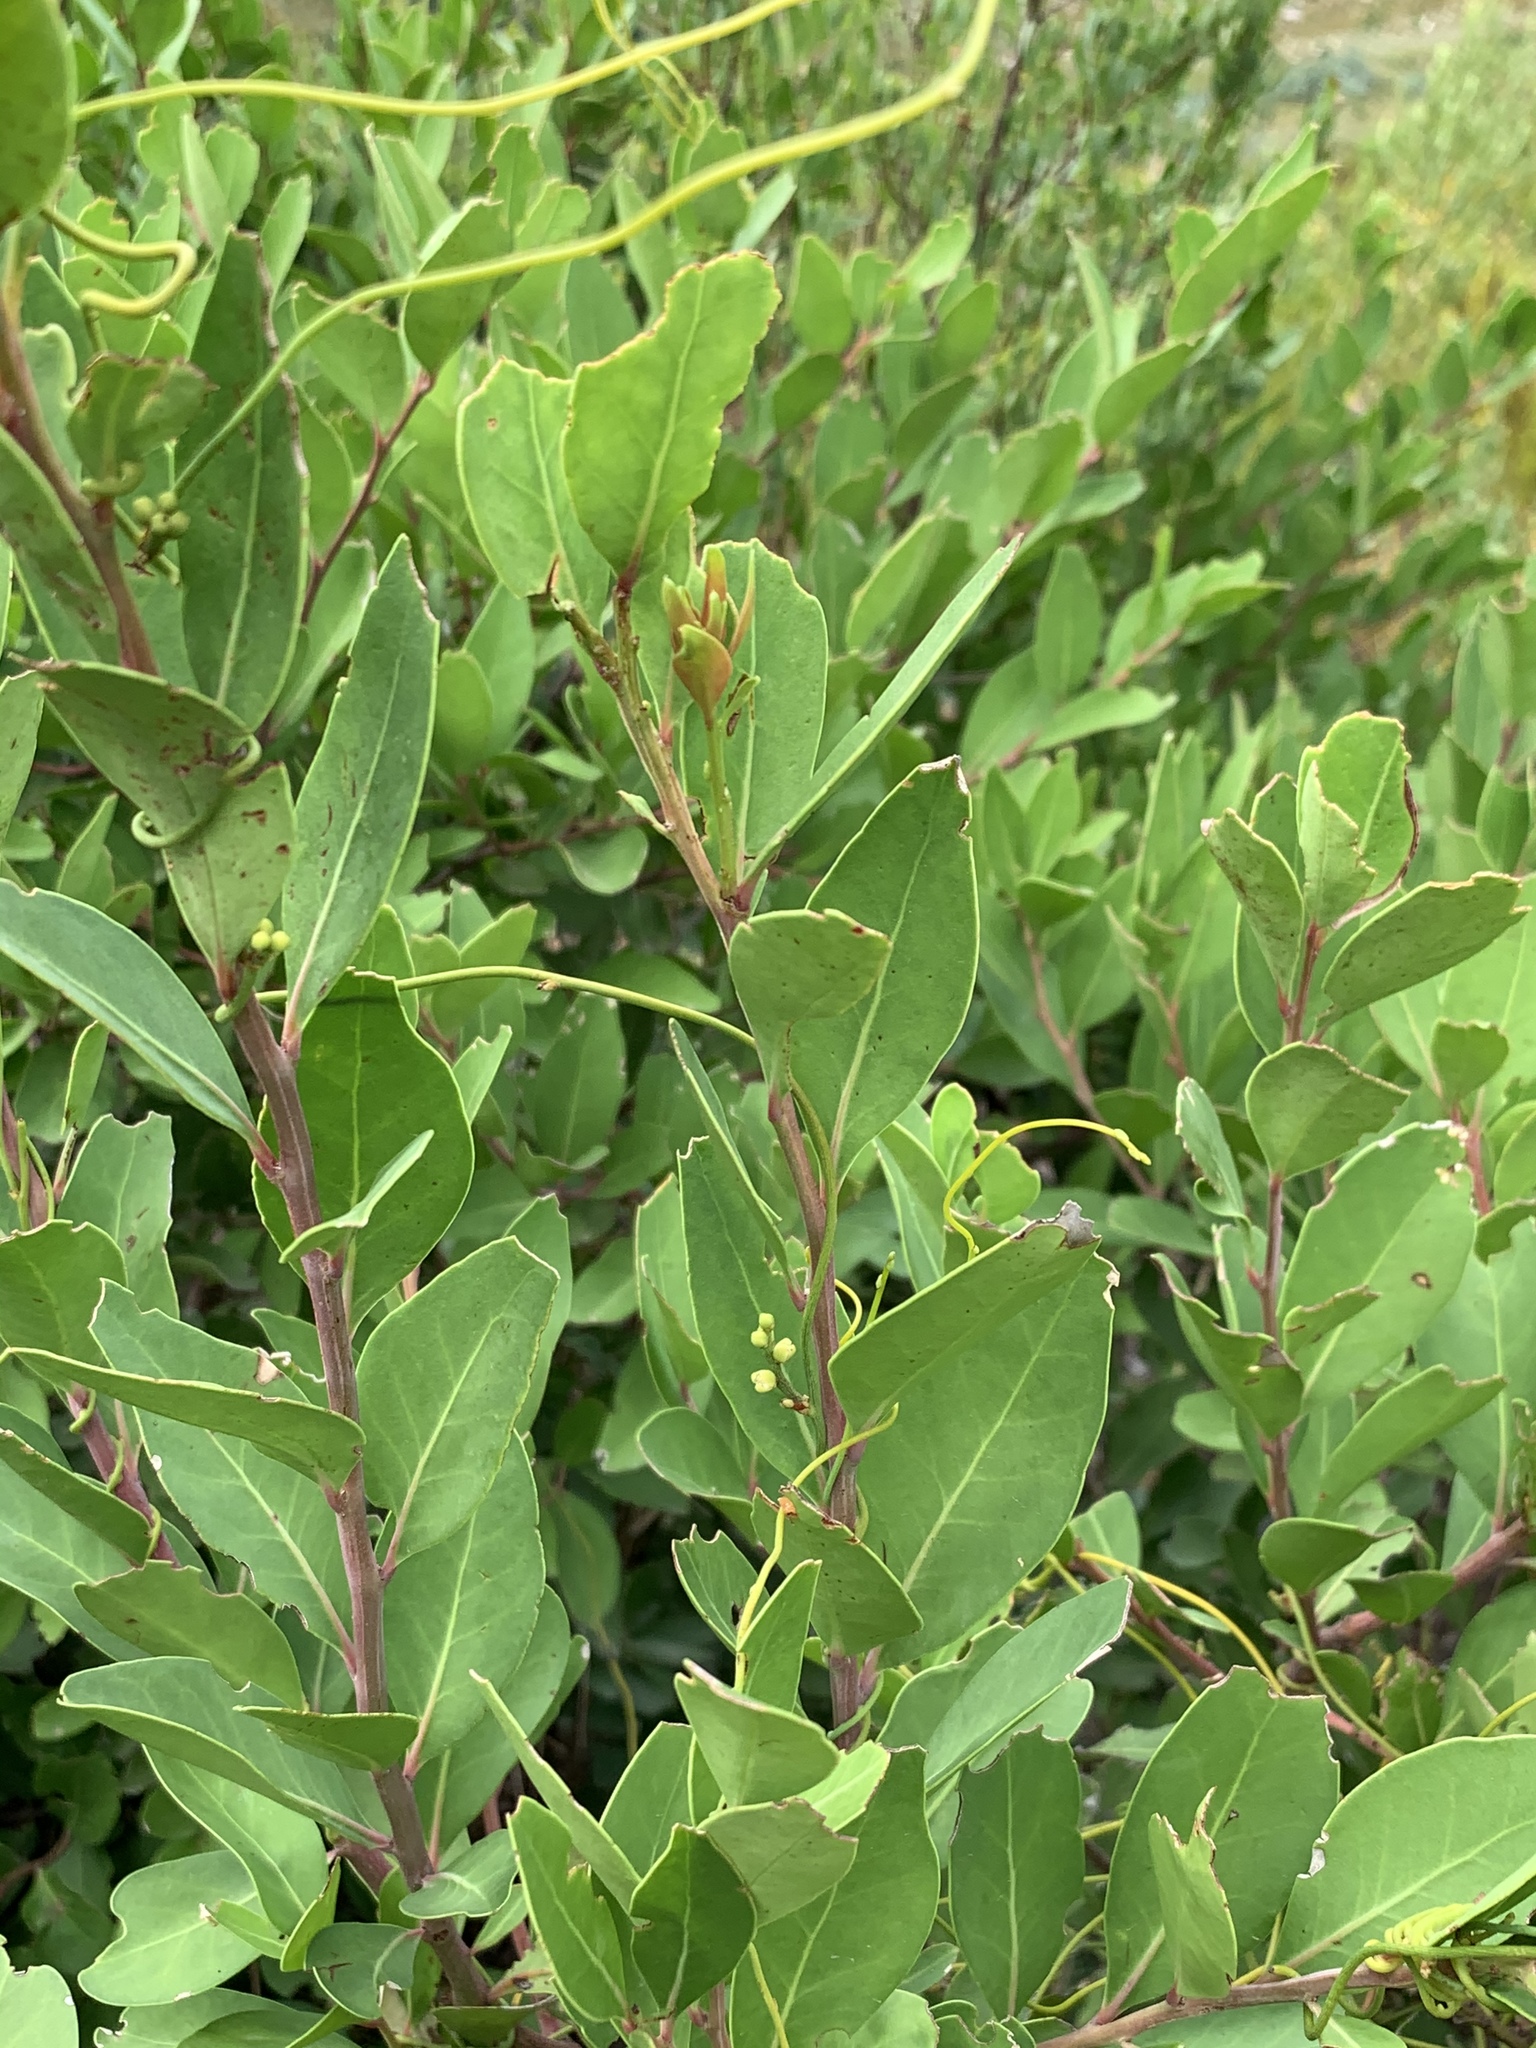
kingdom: Plantae
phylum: Tracheophyta
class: Magnoliopsida
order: Celastrales
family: Celastraceae
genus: Gymnosporia
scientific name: Gymnosporia laurina
